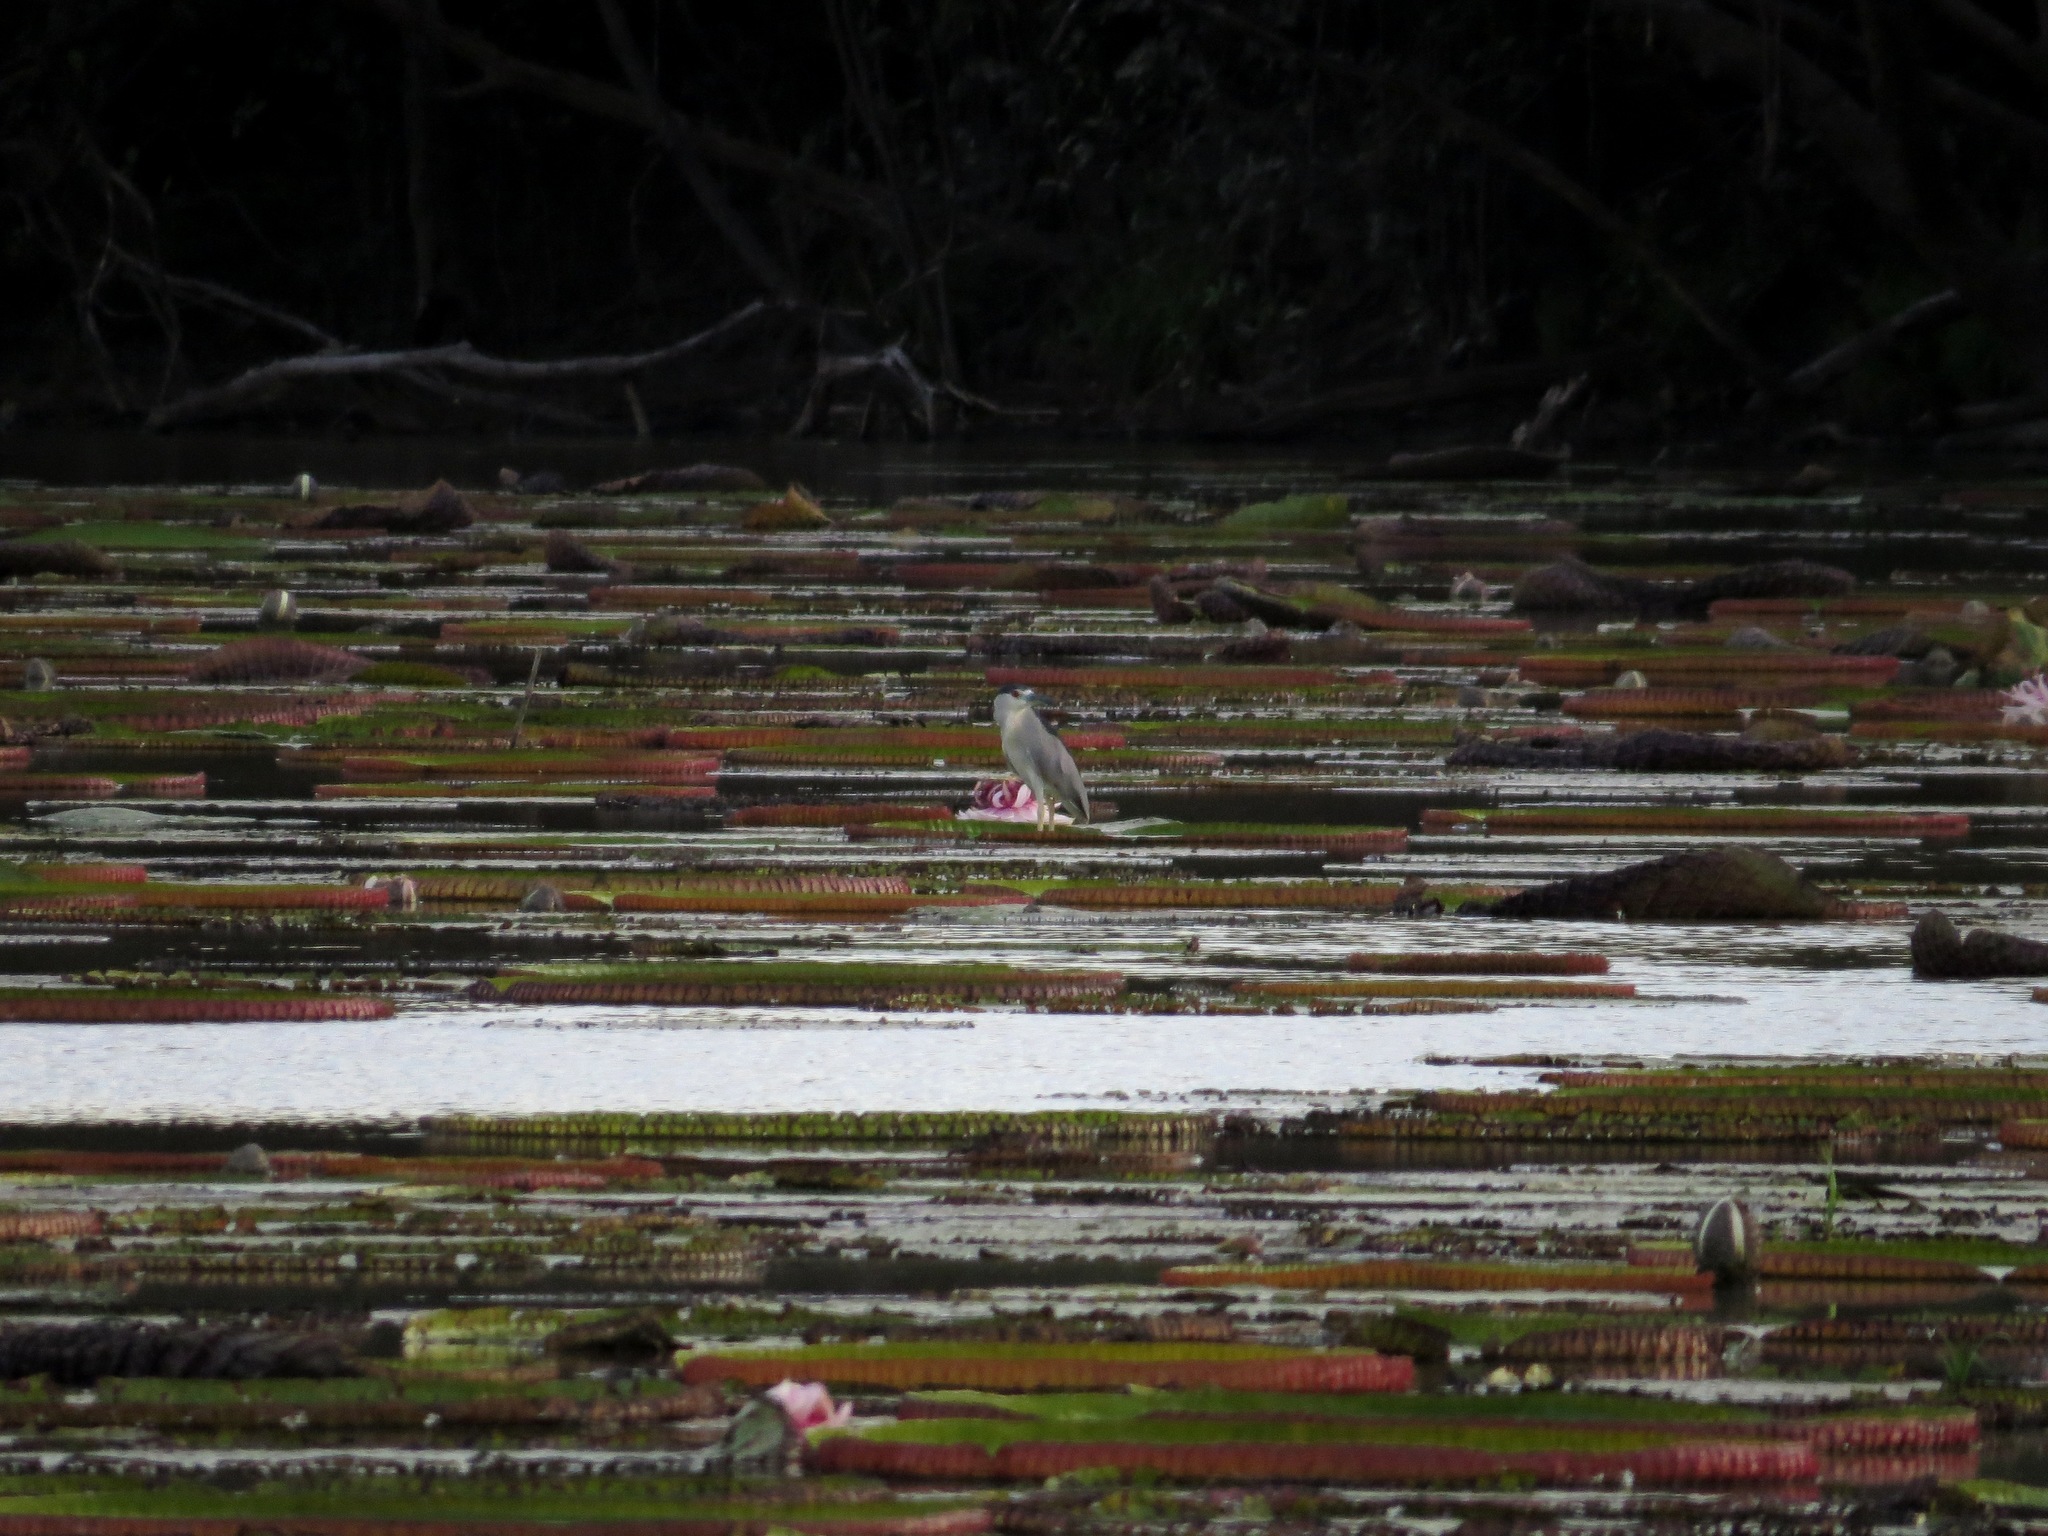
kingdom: Plantae
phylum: Tracheophyta
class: Magnoliopsida
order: Nymphaeales
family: Nymphaeaceae
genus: Victoria
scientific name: Victoria amazonica
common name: Amazon water-lily
